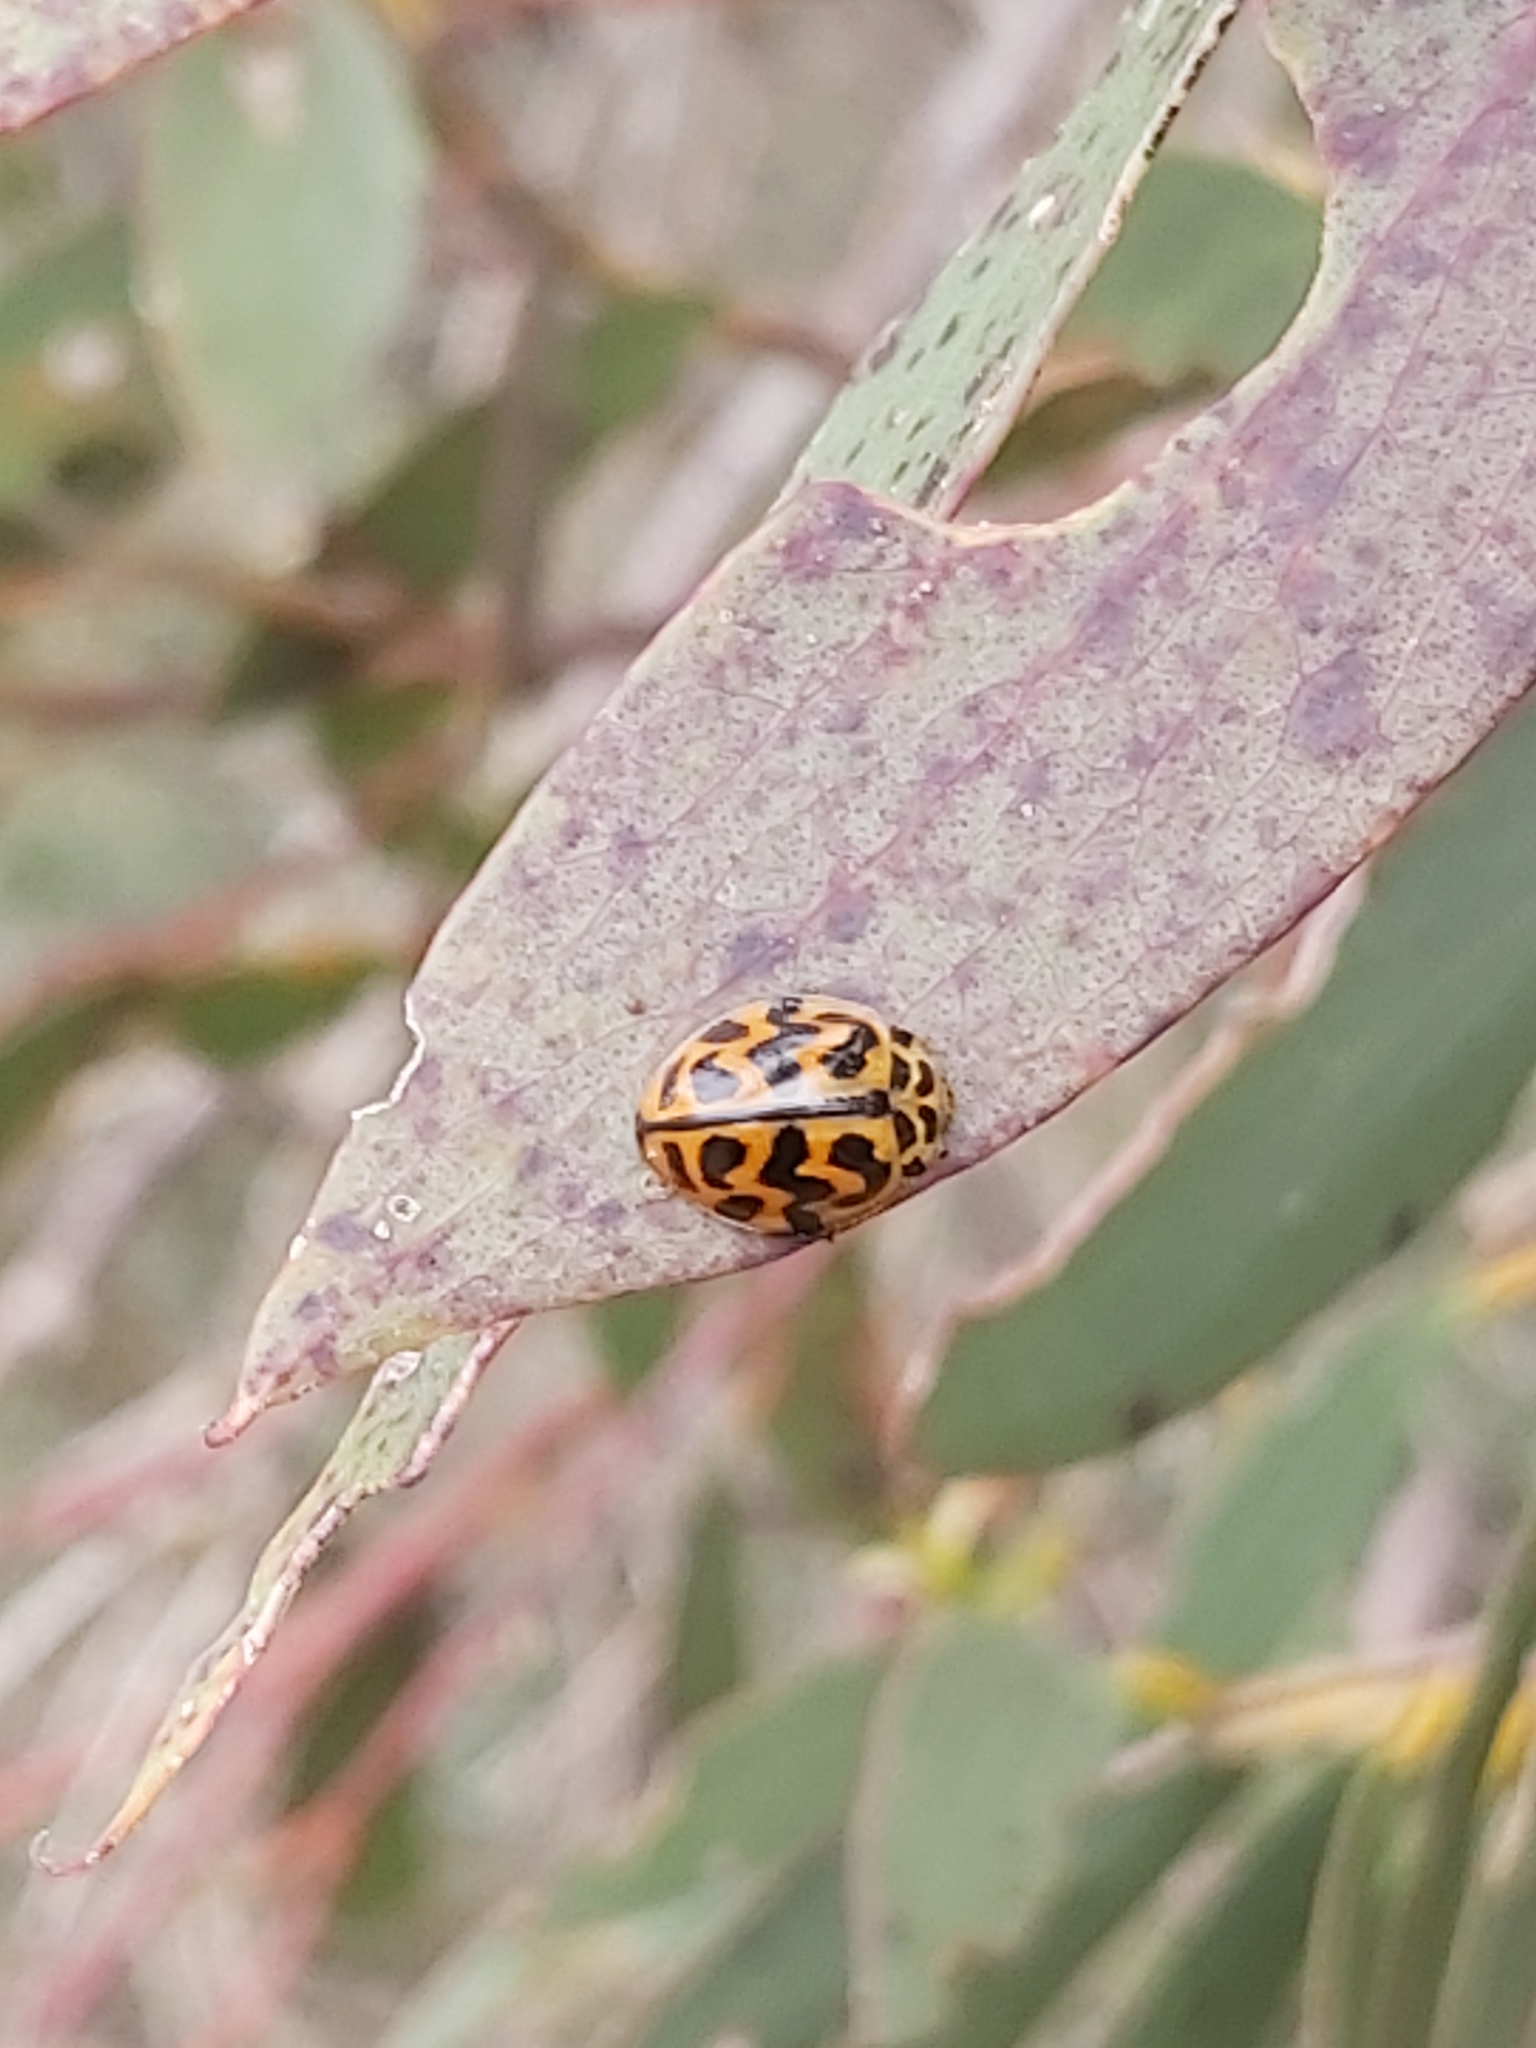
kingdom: Animalia
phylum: Arthropoda
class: Insecta
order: Coleoptera
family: Coccinellidae
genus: Cleobora
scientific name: Cleobora
